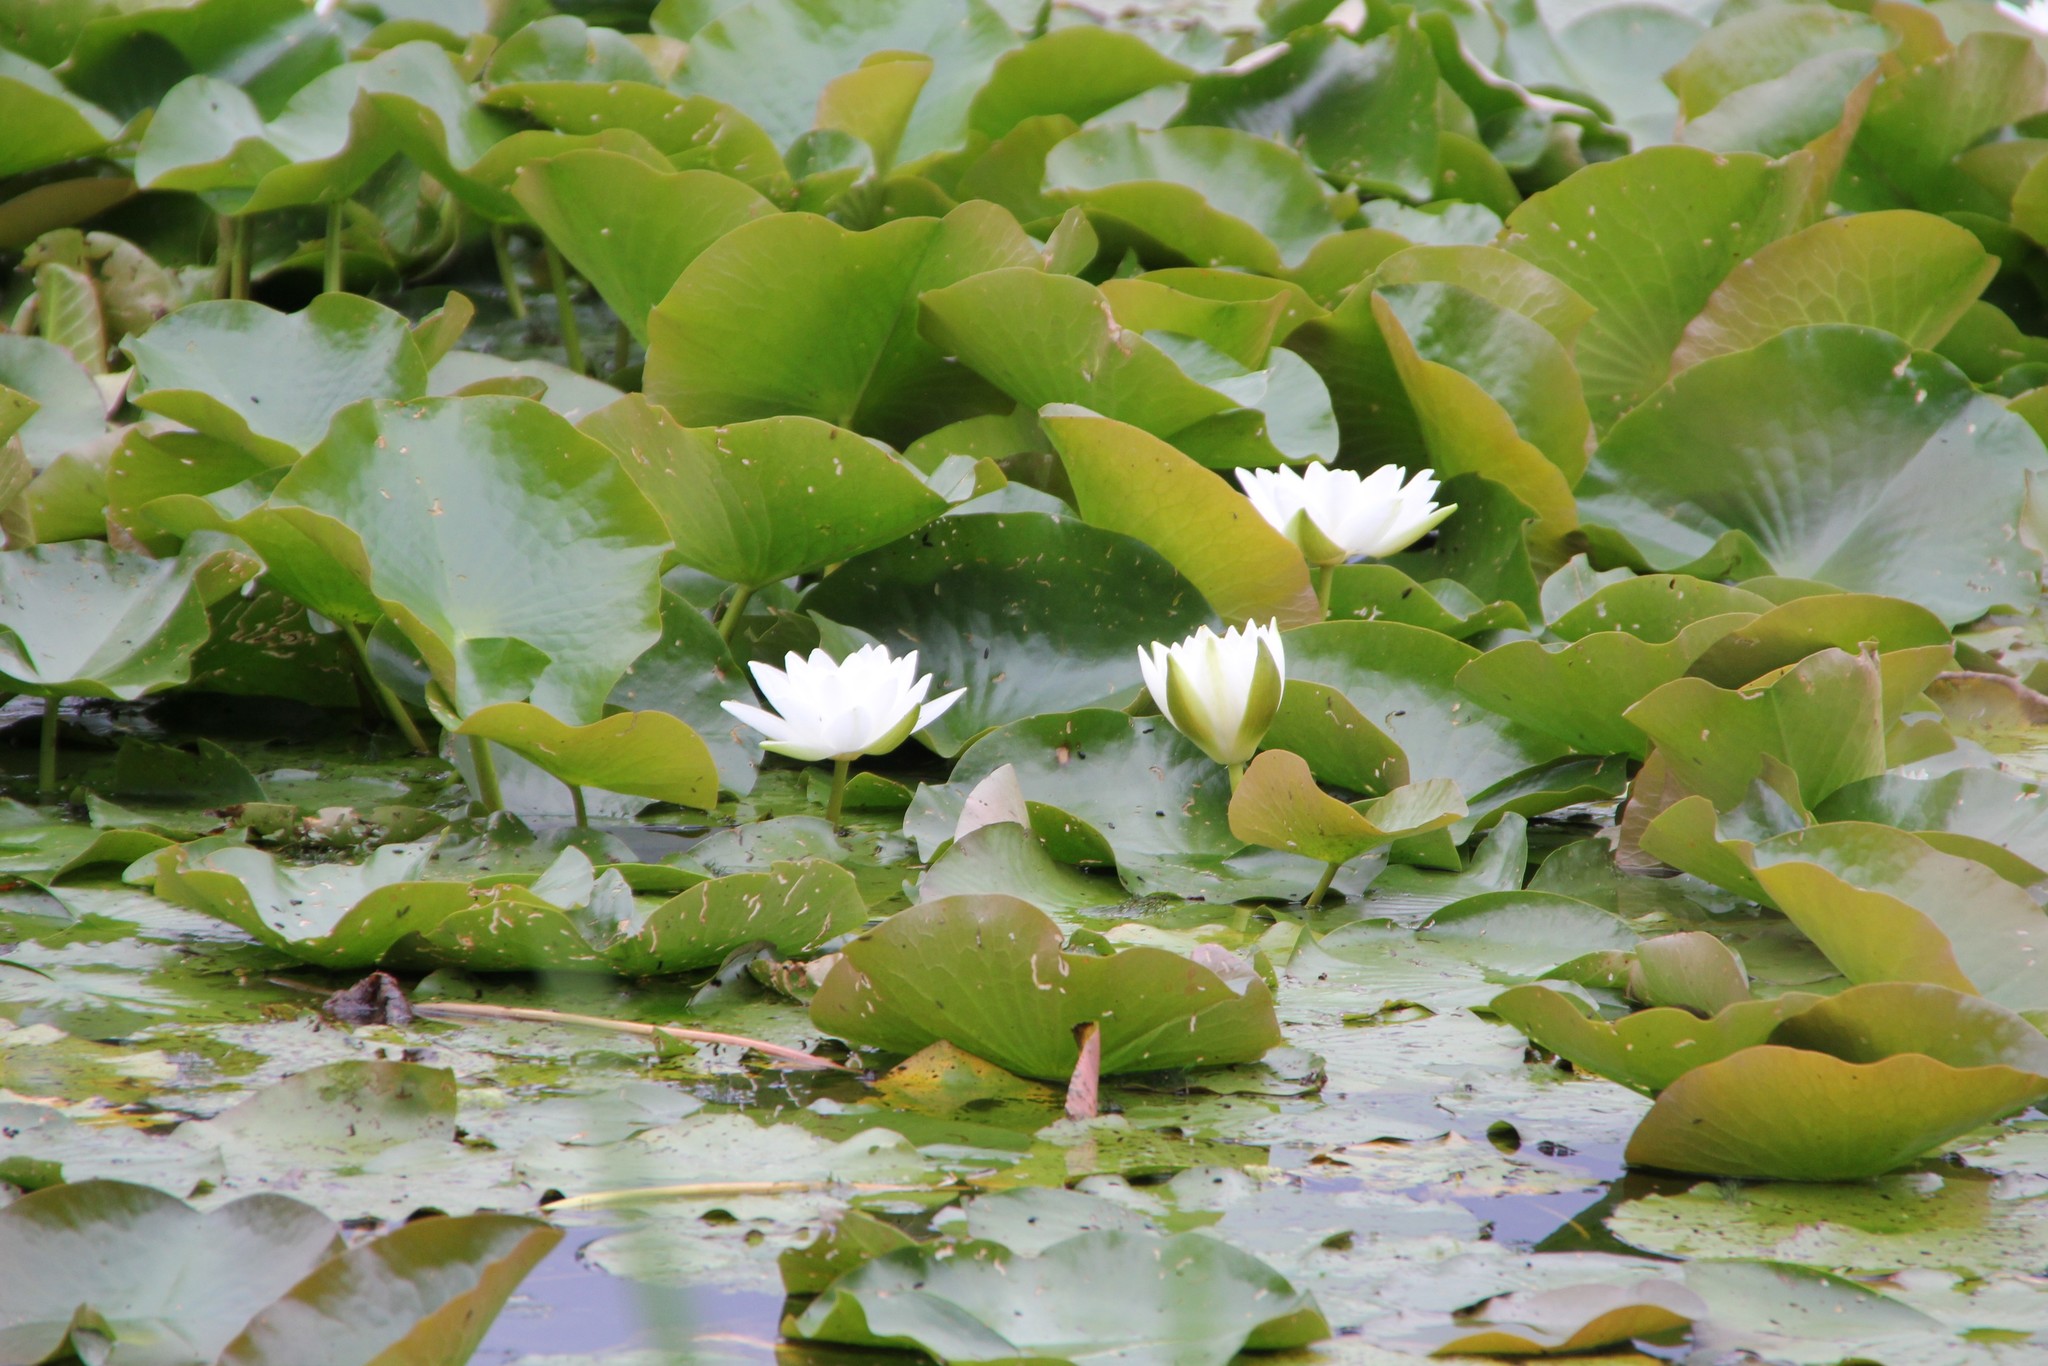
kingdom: Plantae
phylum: Tracheophyta
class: Magnoliopsida
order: Nymphaeales
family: Nymphaeaceae
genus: Nymphaea
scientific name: Nymphaea alba
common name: White water-lily
